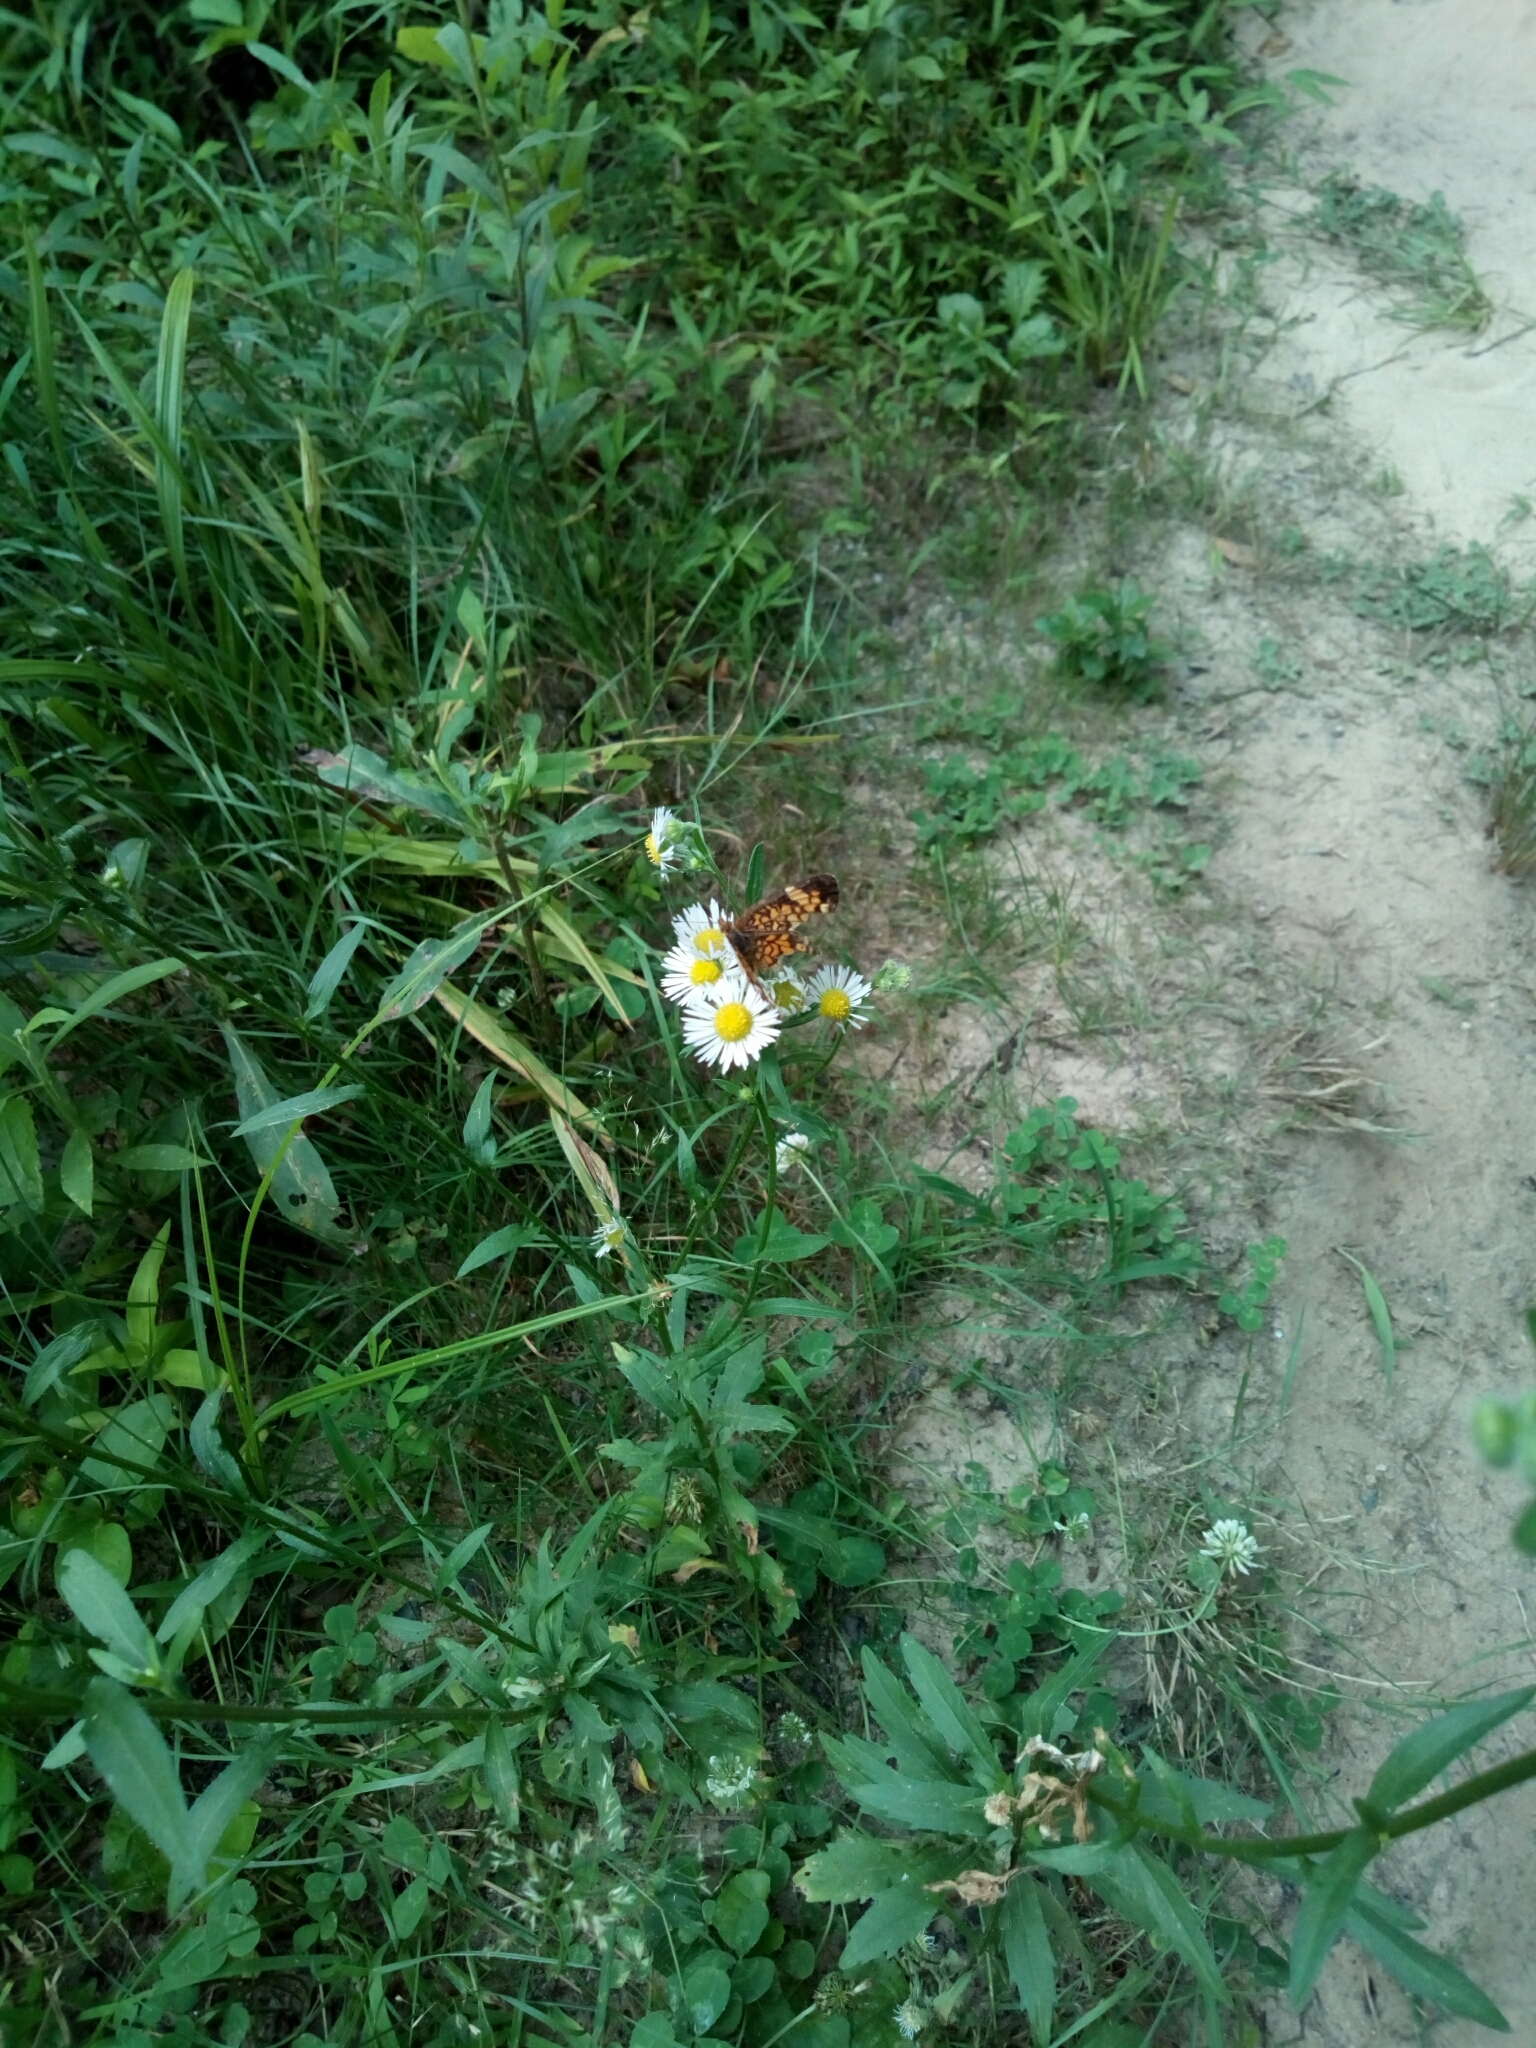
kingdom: Animalia
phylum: Arthropoda
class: Insecta
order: Lepidoptera
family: Nymphalidae
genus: Phyciodes
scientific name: Phyciodes tharos
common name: Pearl crescent
